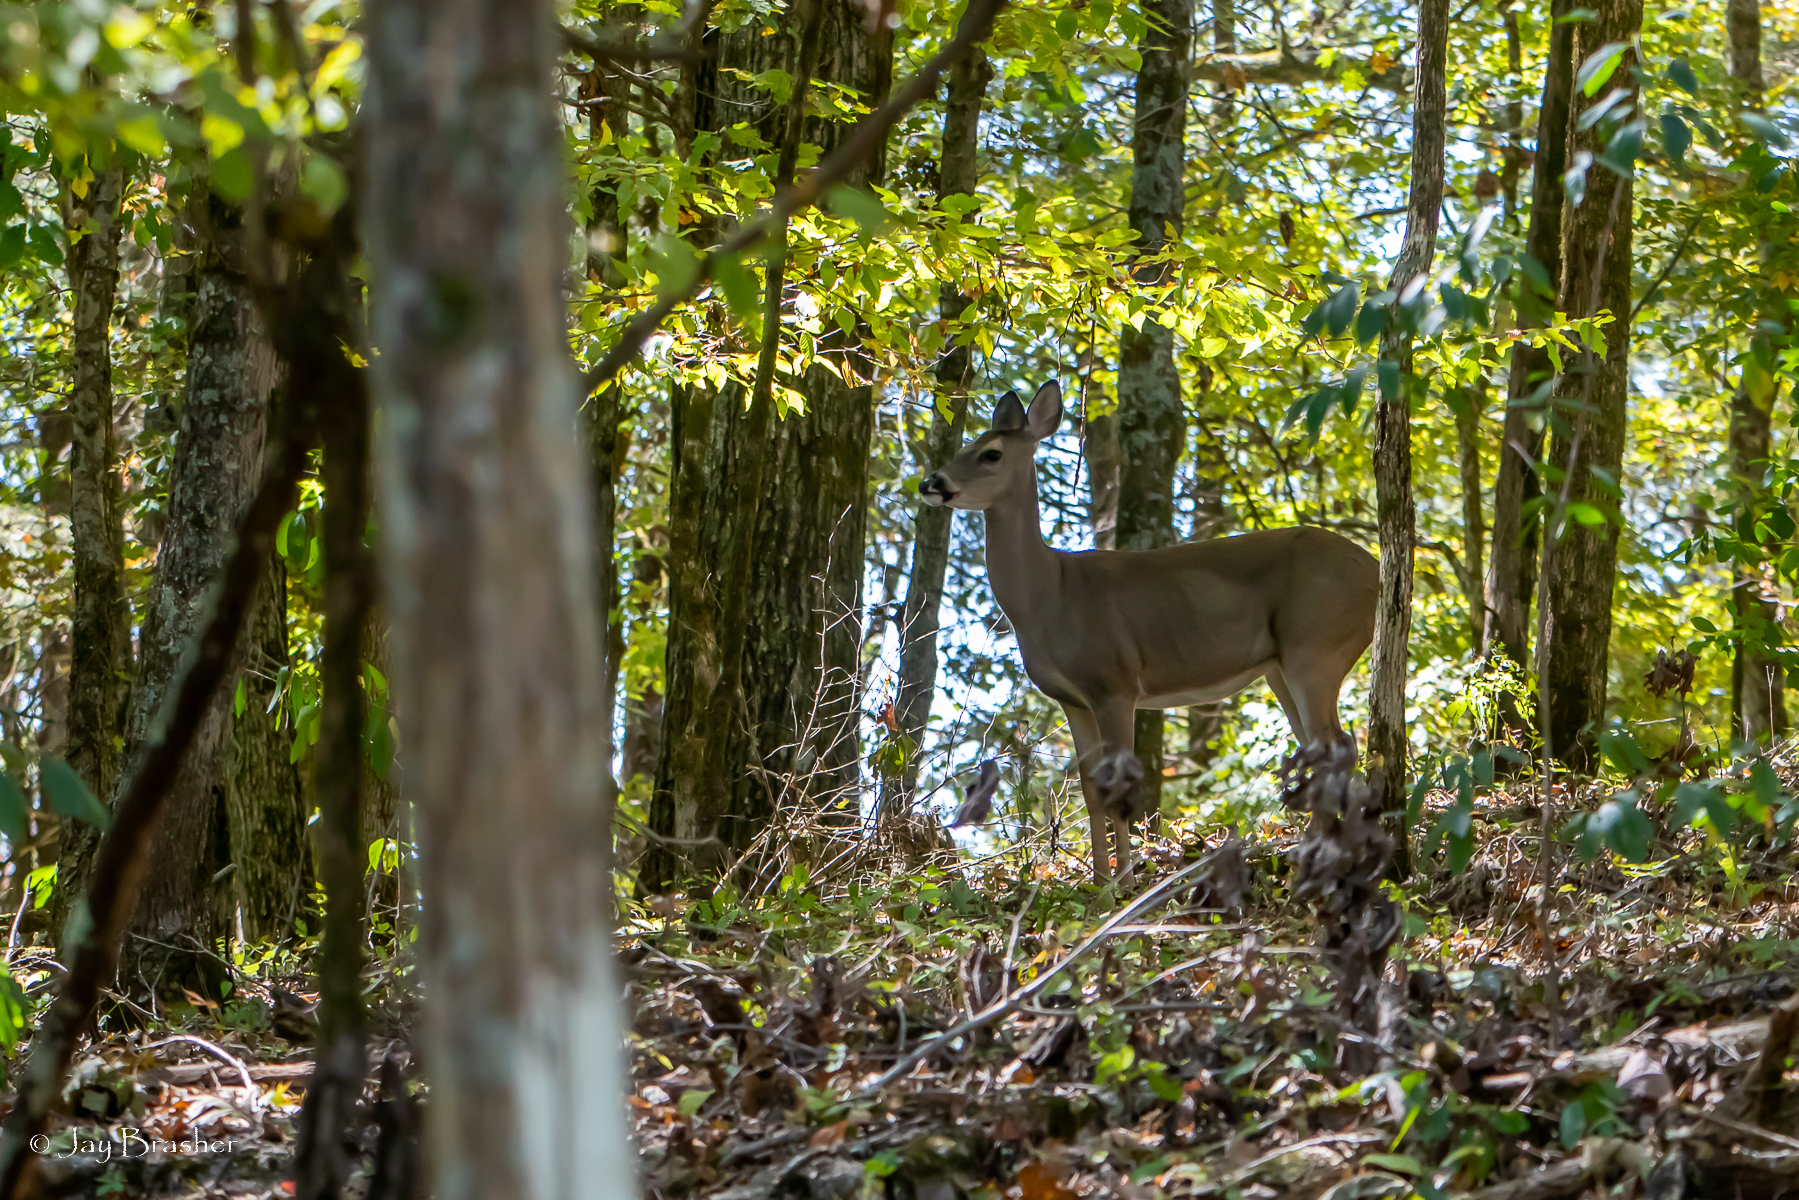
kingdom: Animalia
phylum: Chordata
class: Mammalia
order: Artiodactyla
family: Cervidae
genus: Odocoileus
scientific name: Odocoileus virginianus
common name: White-tailed deer
